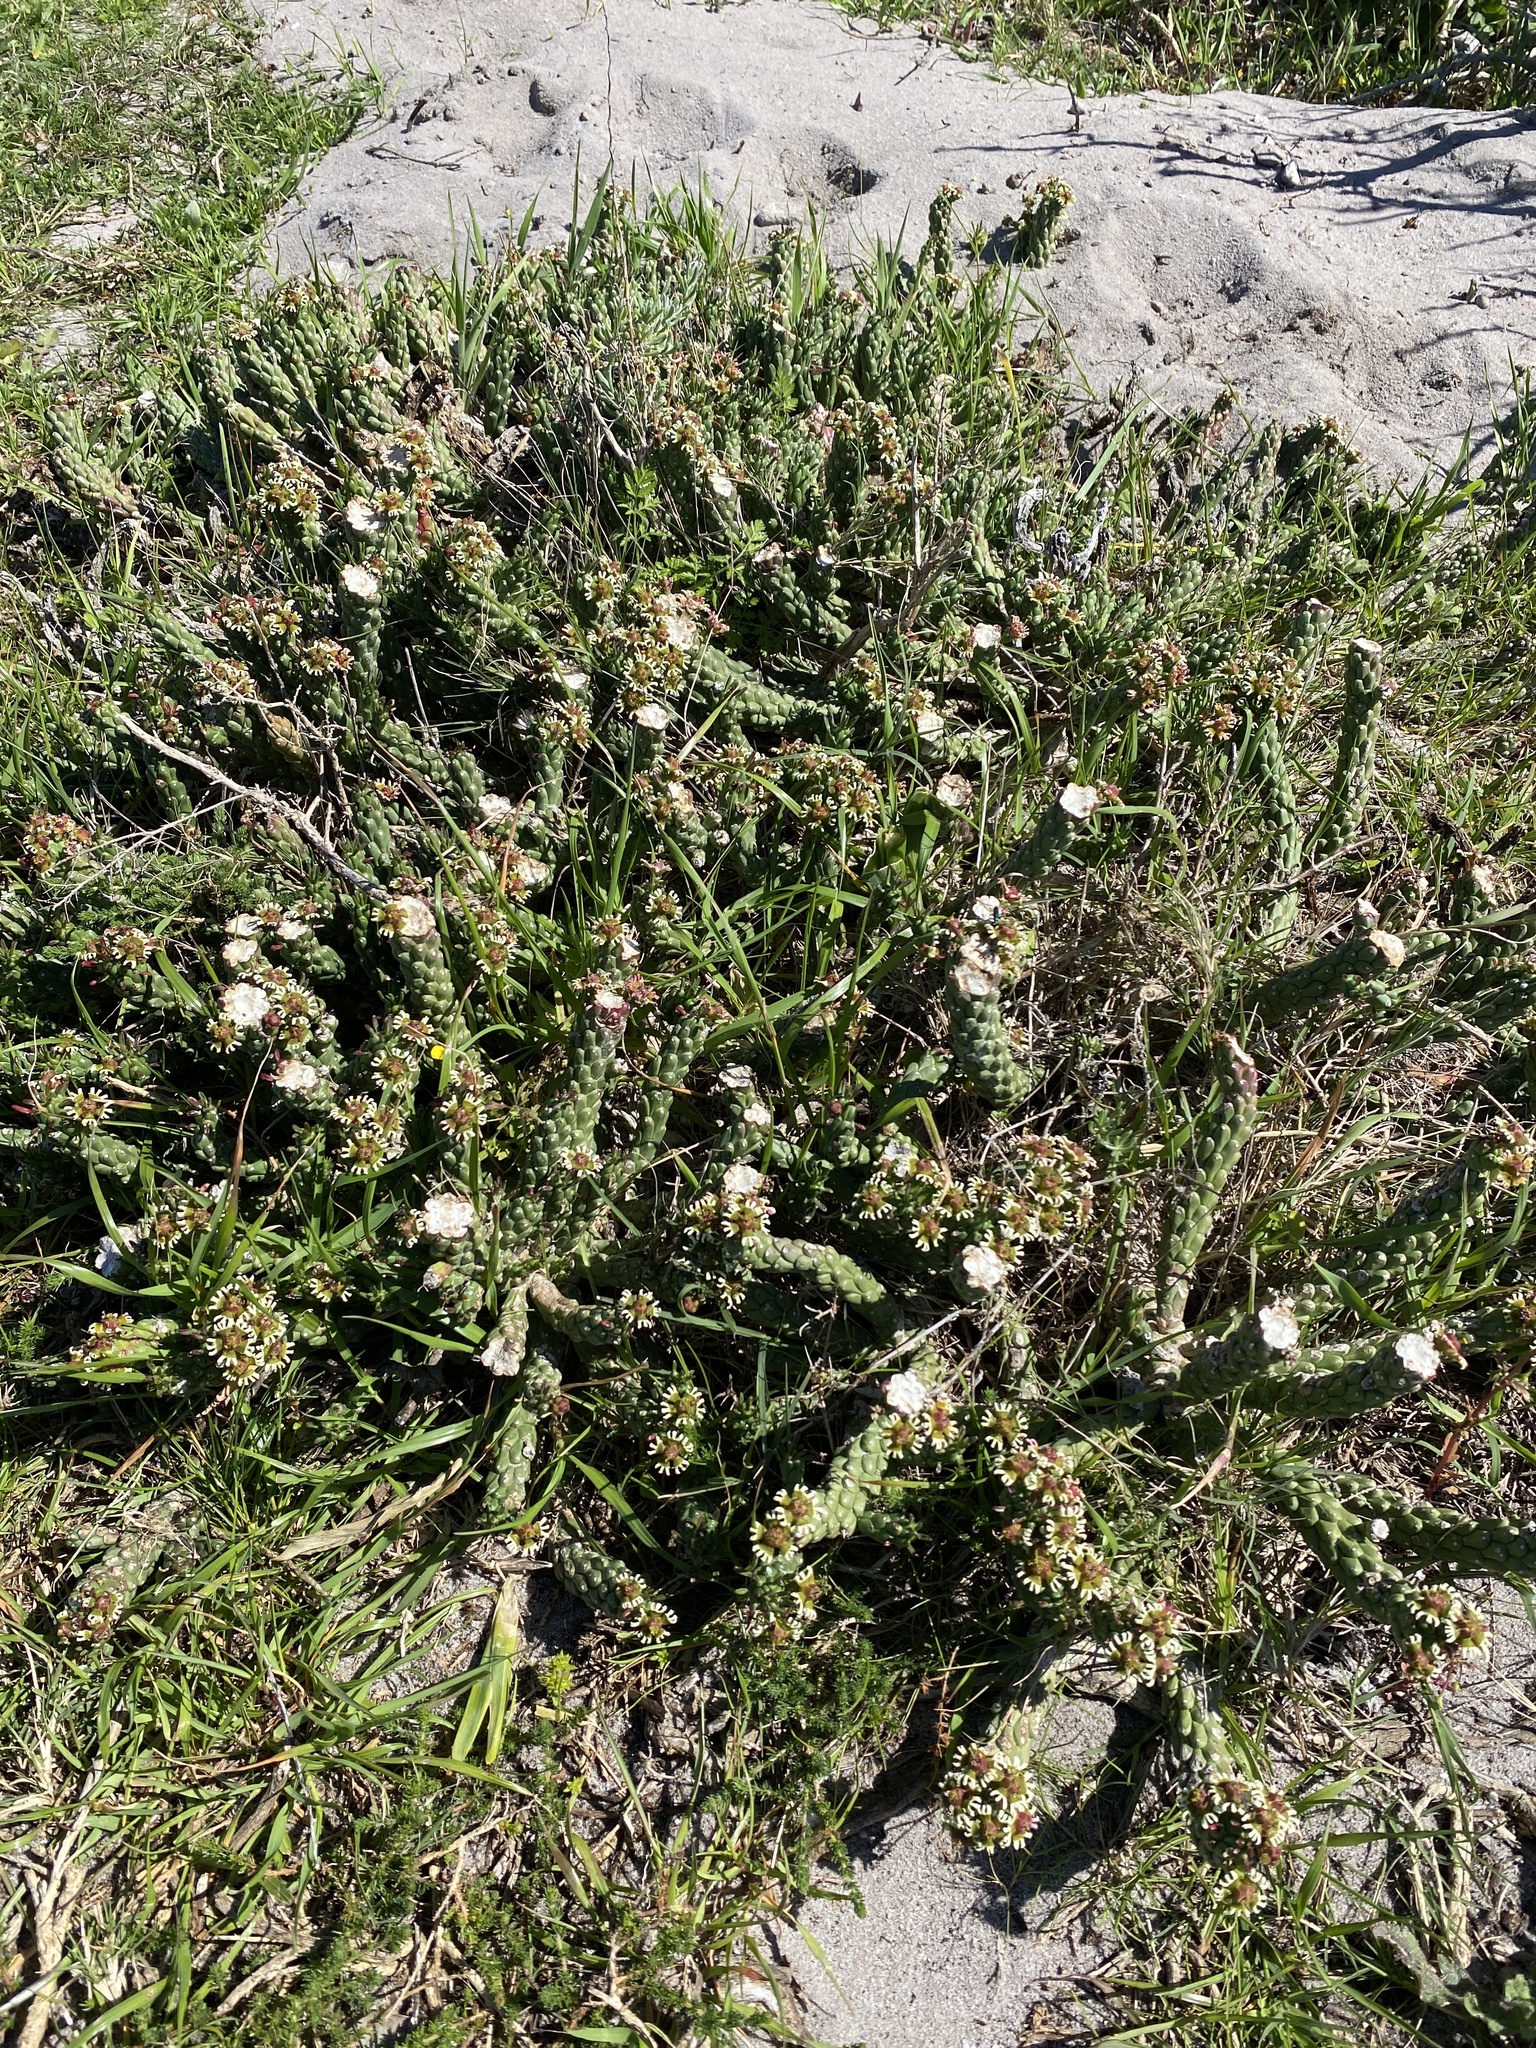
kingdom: Plantae
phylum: Tracheophyta
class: Magnoliopsida
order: Malpighiales
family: Euphorbiaceae
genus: Euphorbia
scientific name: Euphorbia caput-medusae
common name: Medusa's-head
